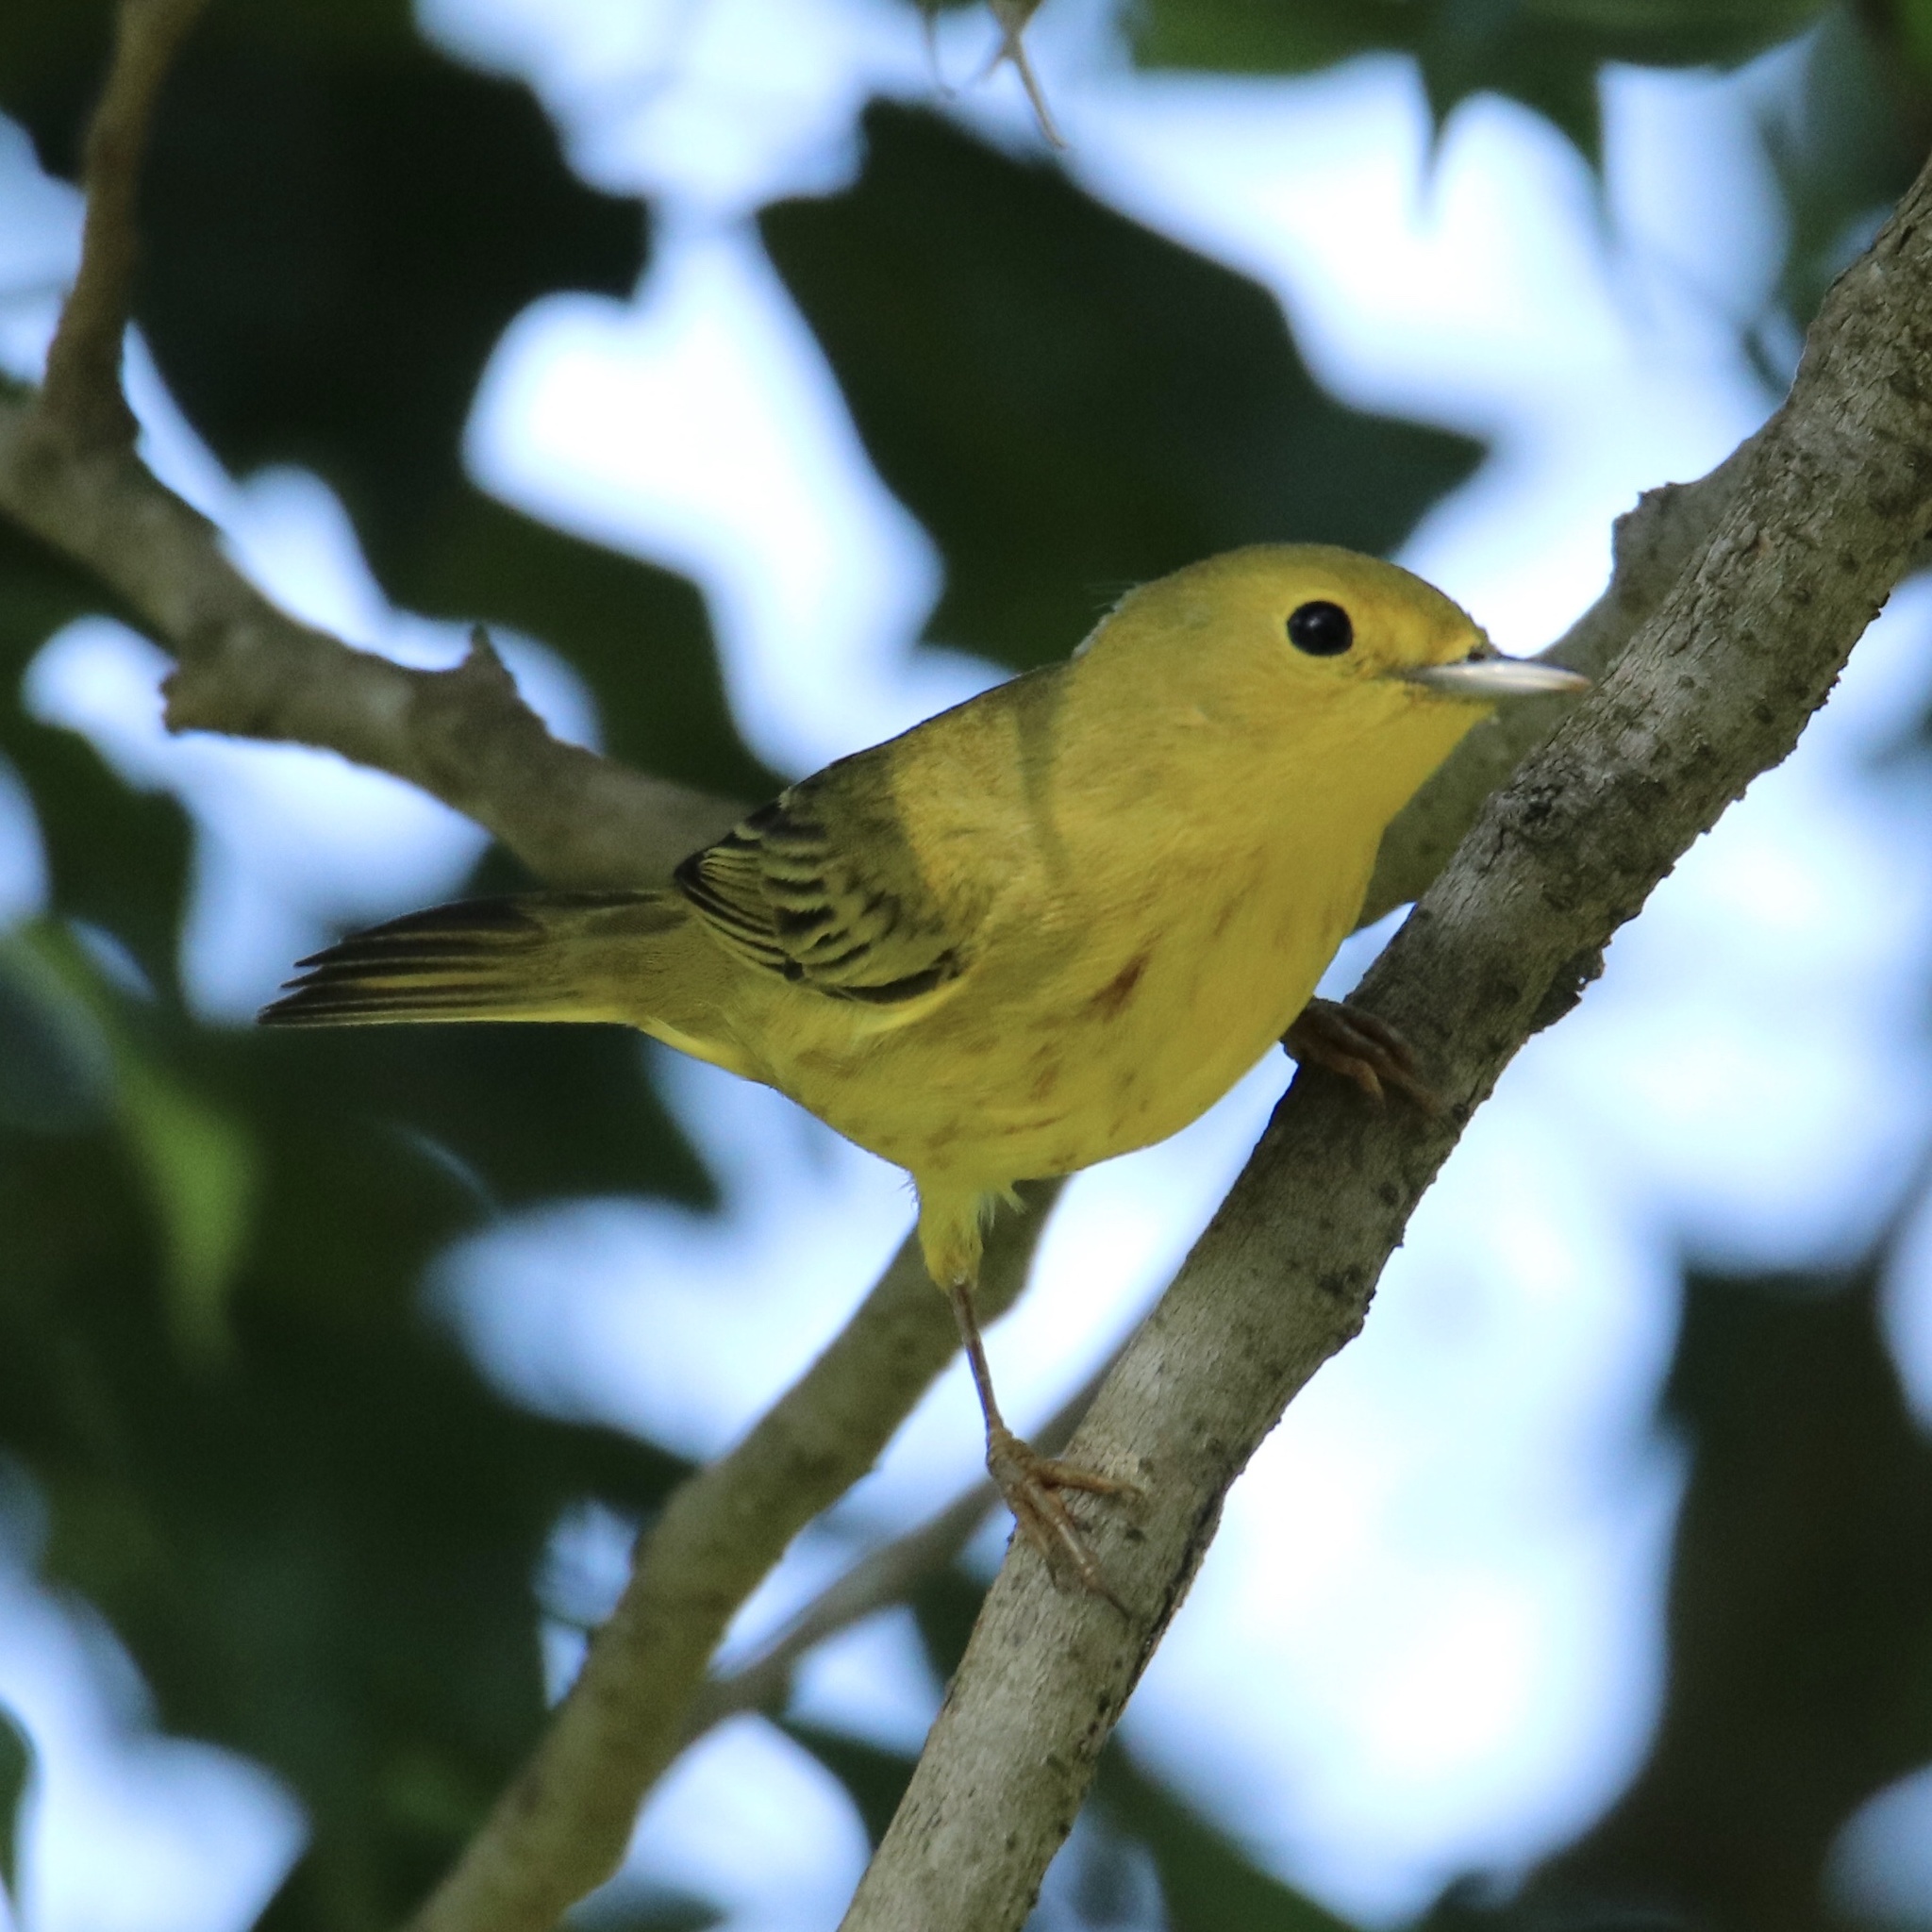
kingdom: Animalia
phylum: Chordata
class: Aves
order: Passeriformes
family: Parulidae
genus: Setophaga
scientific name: Setophaga petechia
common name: Yellow warbler
